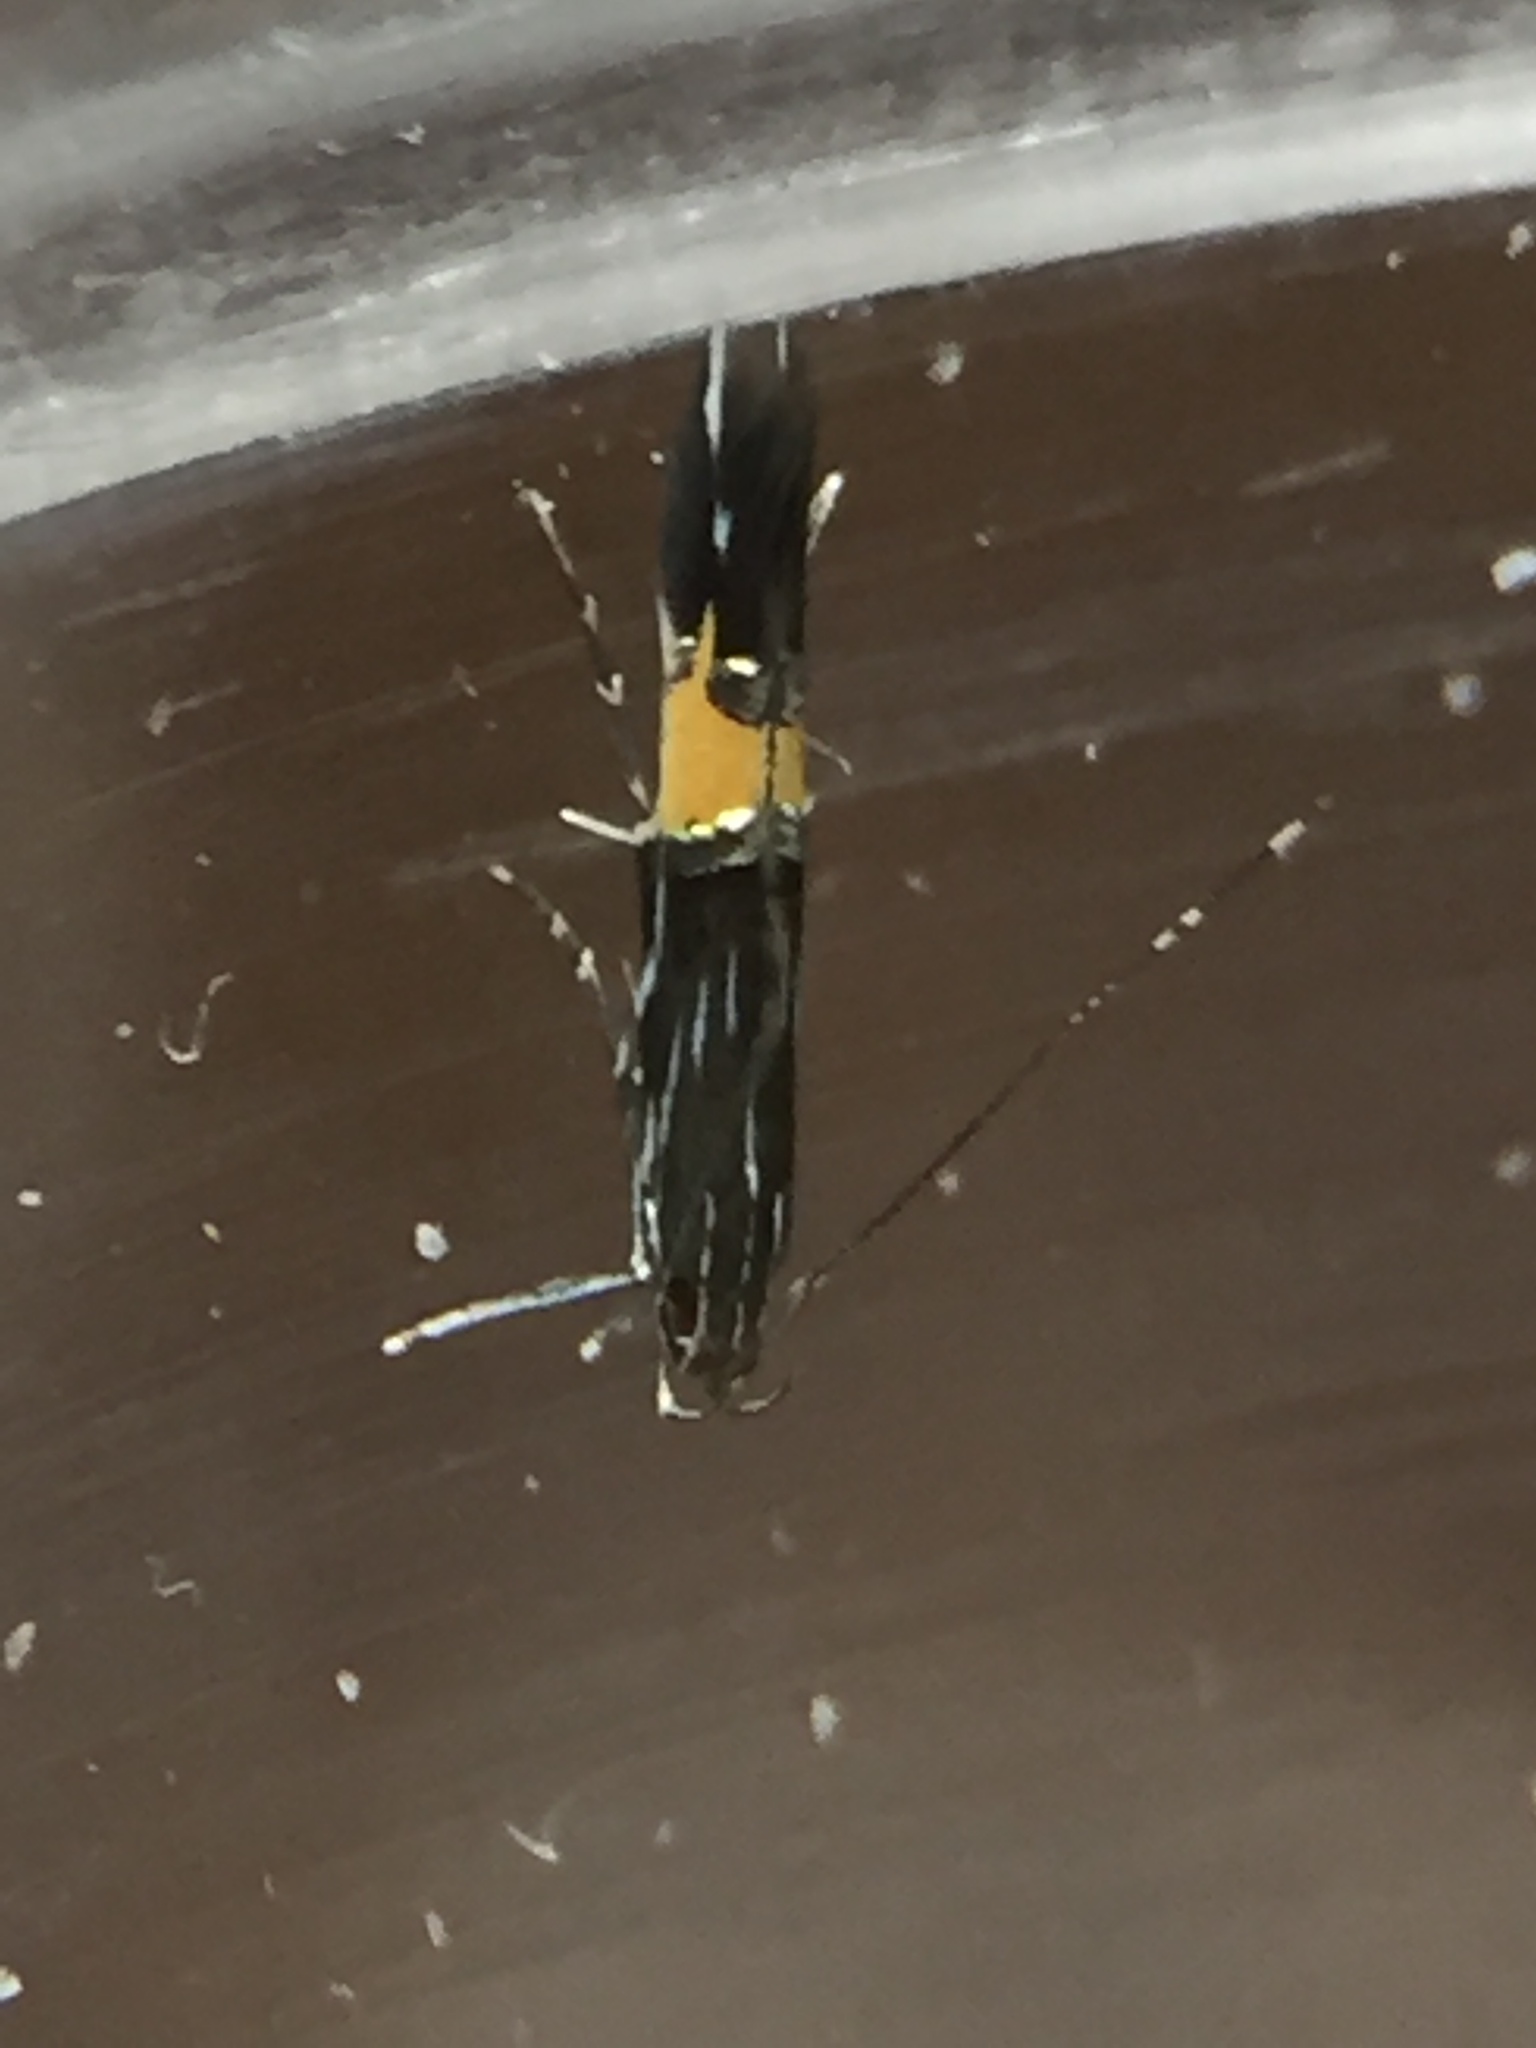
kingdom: Animalia
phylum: Arthropoda
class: Insecta
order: Lepidoptera
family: Cosmopterigidae
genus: Cosmopterix
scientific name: Cosmopterix attenuatella
